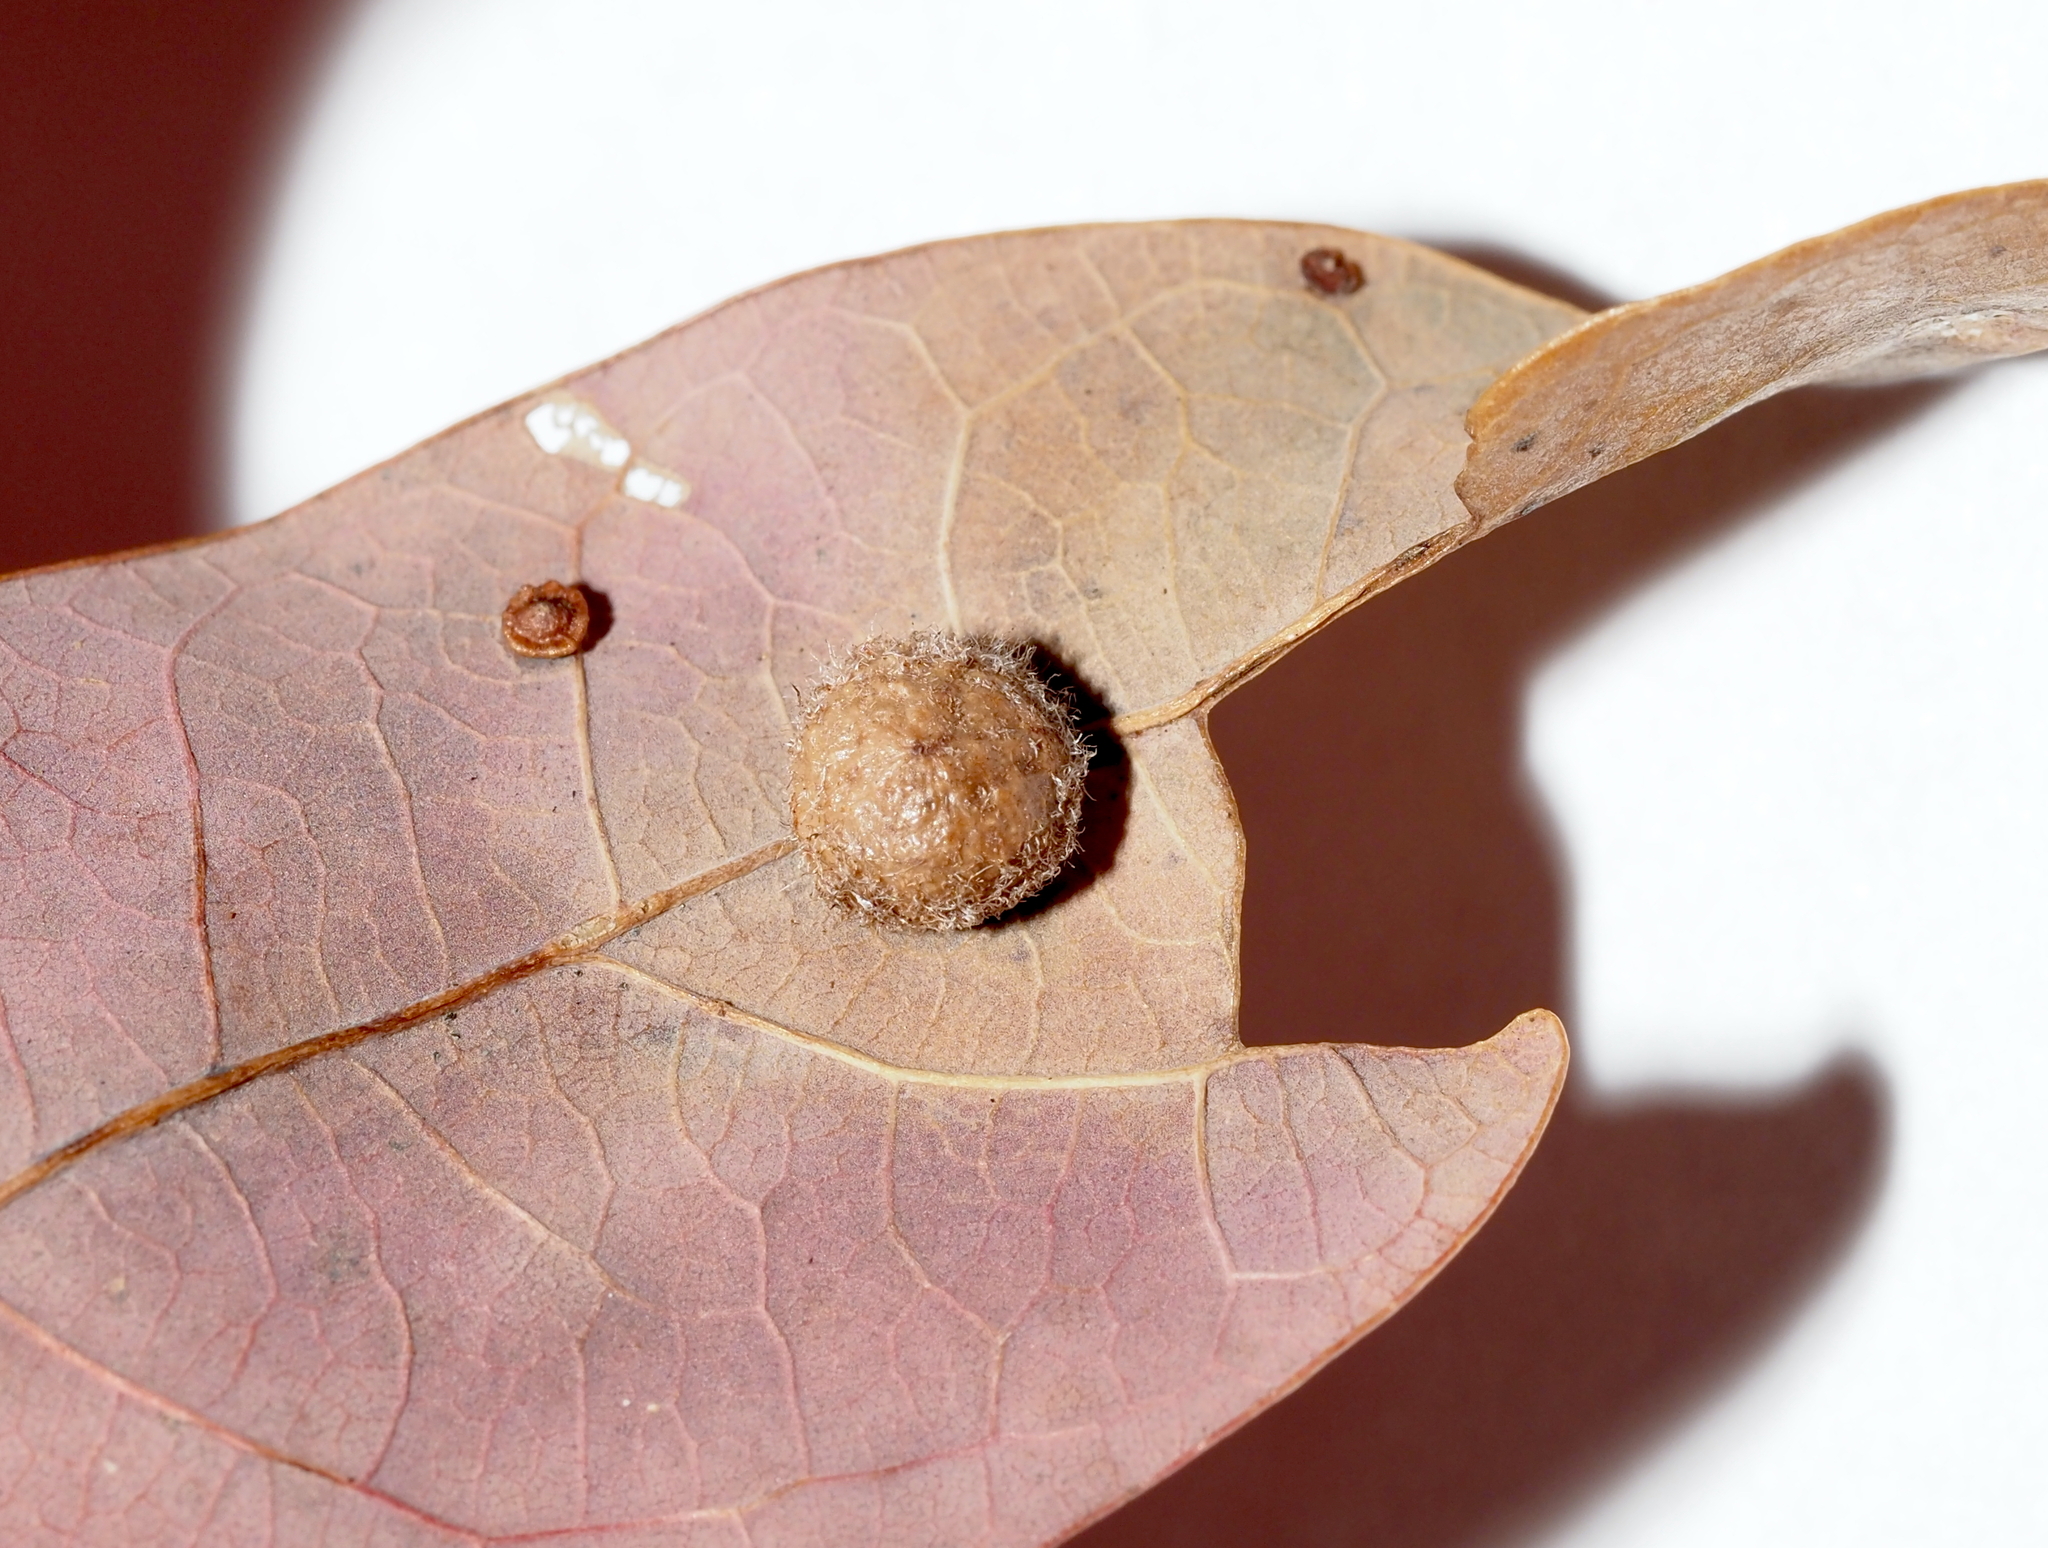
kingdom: Animalia
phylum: Arthropoda
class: Insecta
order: Hymenoptera
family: Cynipidae
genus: Philonix
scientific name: Philonix fulvicollis
